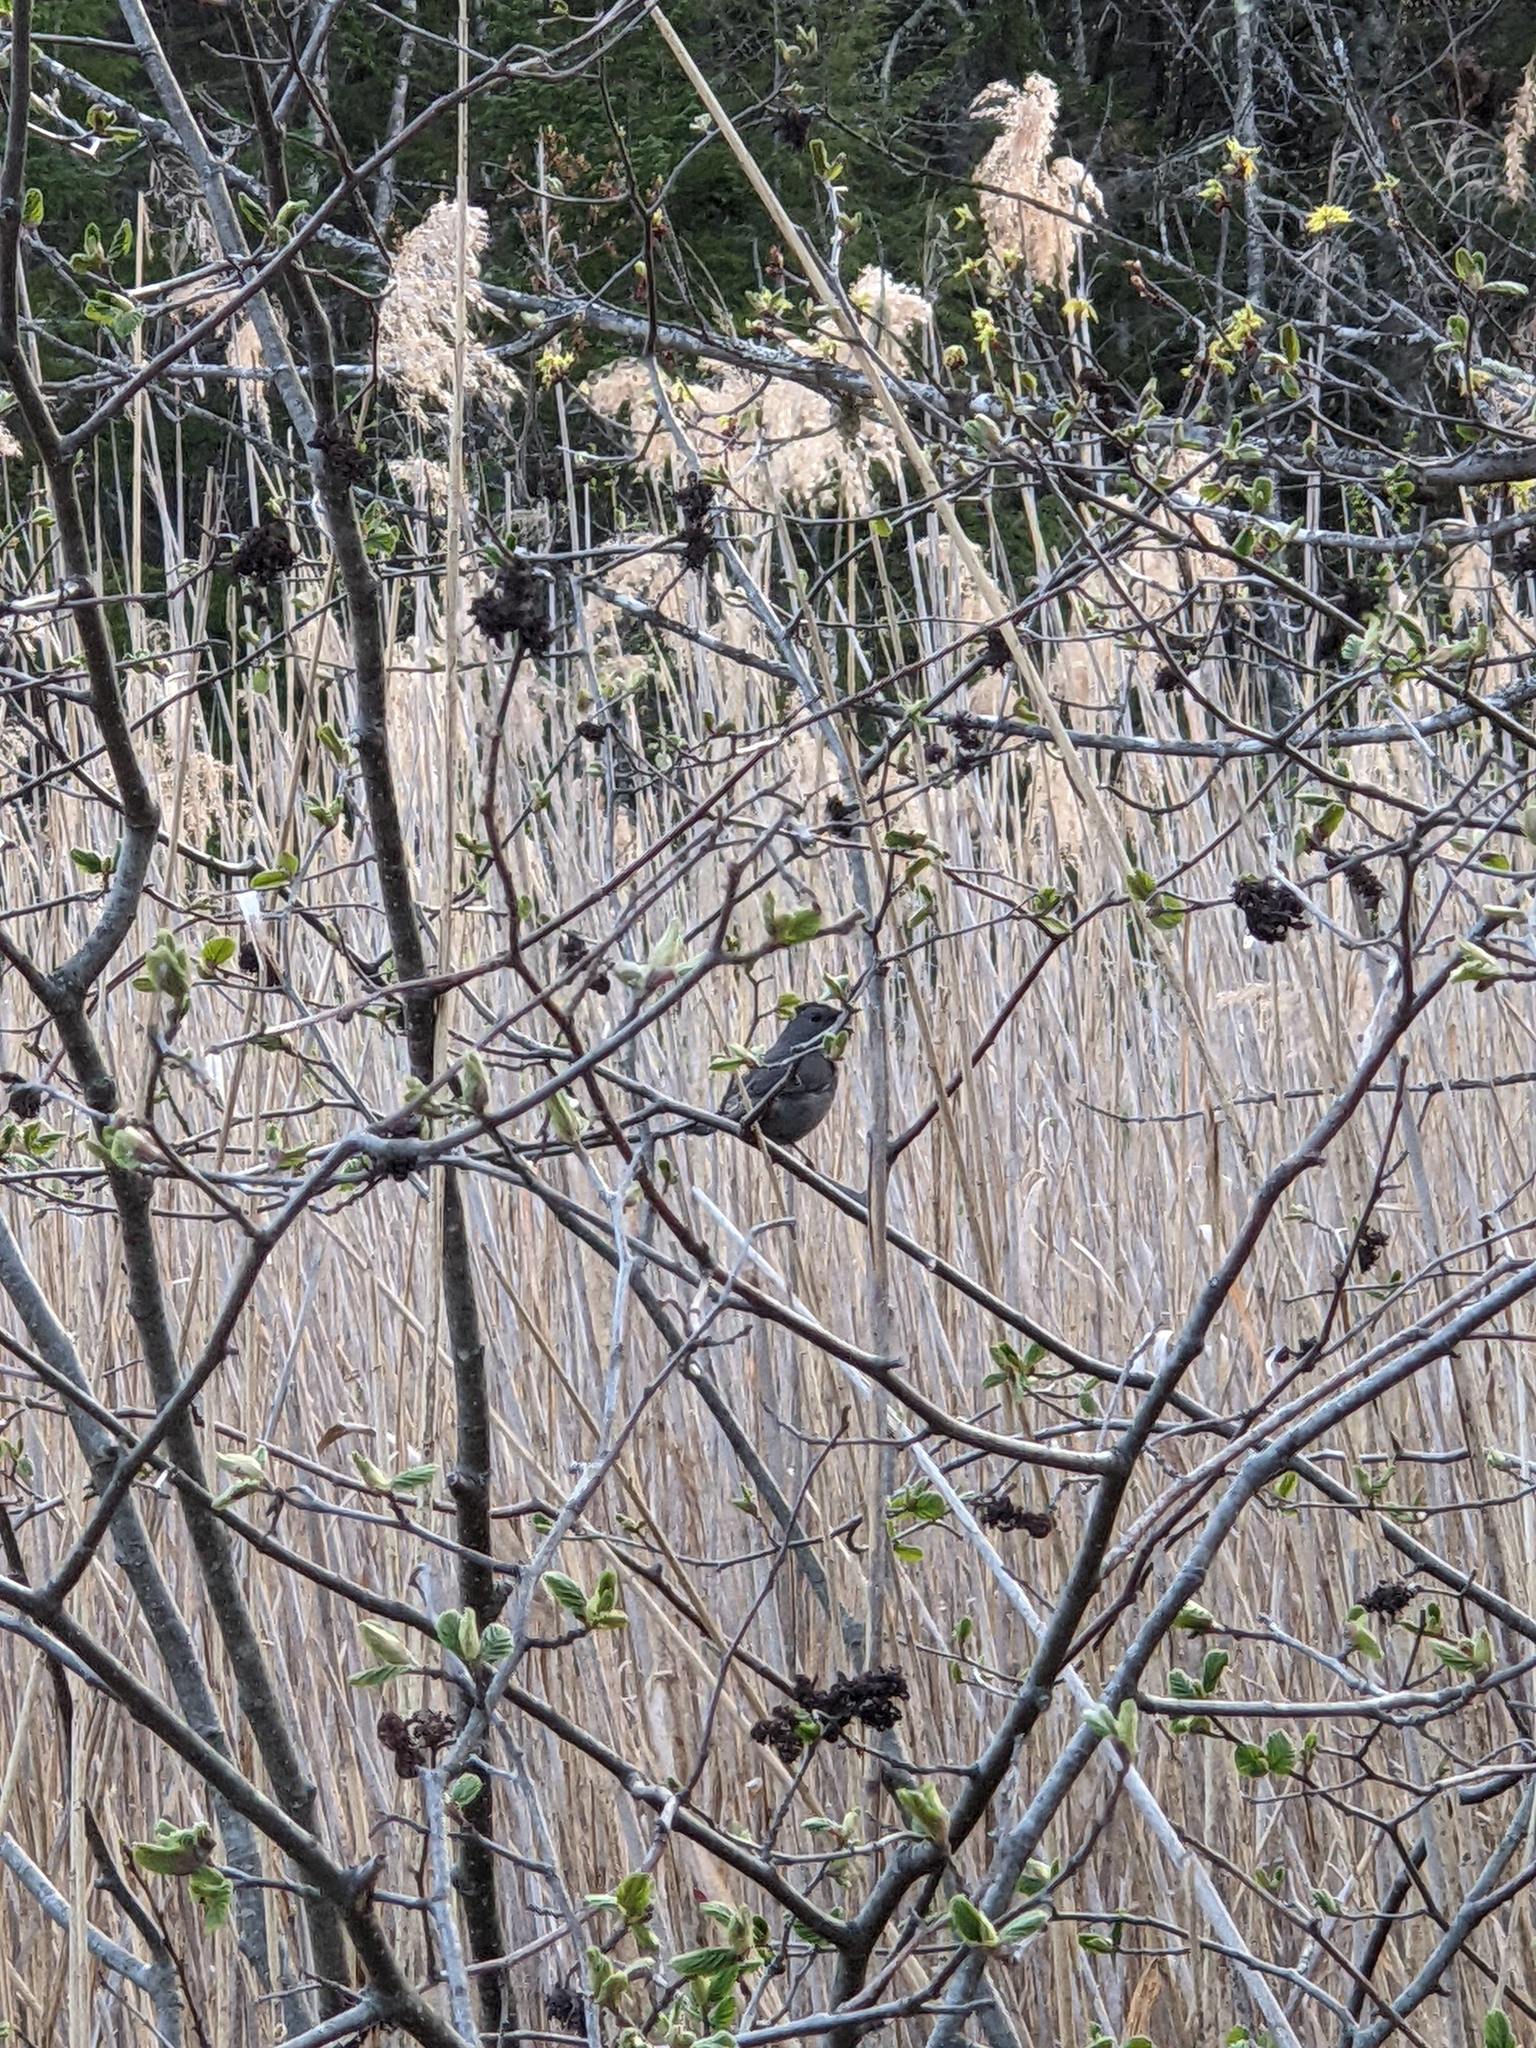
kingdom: Animalia
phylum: Chordata
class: Aves
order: Passeriformes
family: Mimidae
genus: Dumetella
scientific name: Dumetella carolinensis
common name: Gray catbird
